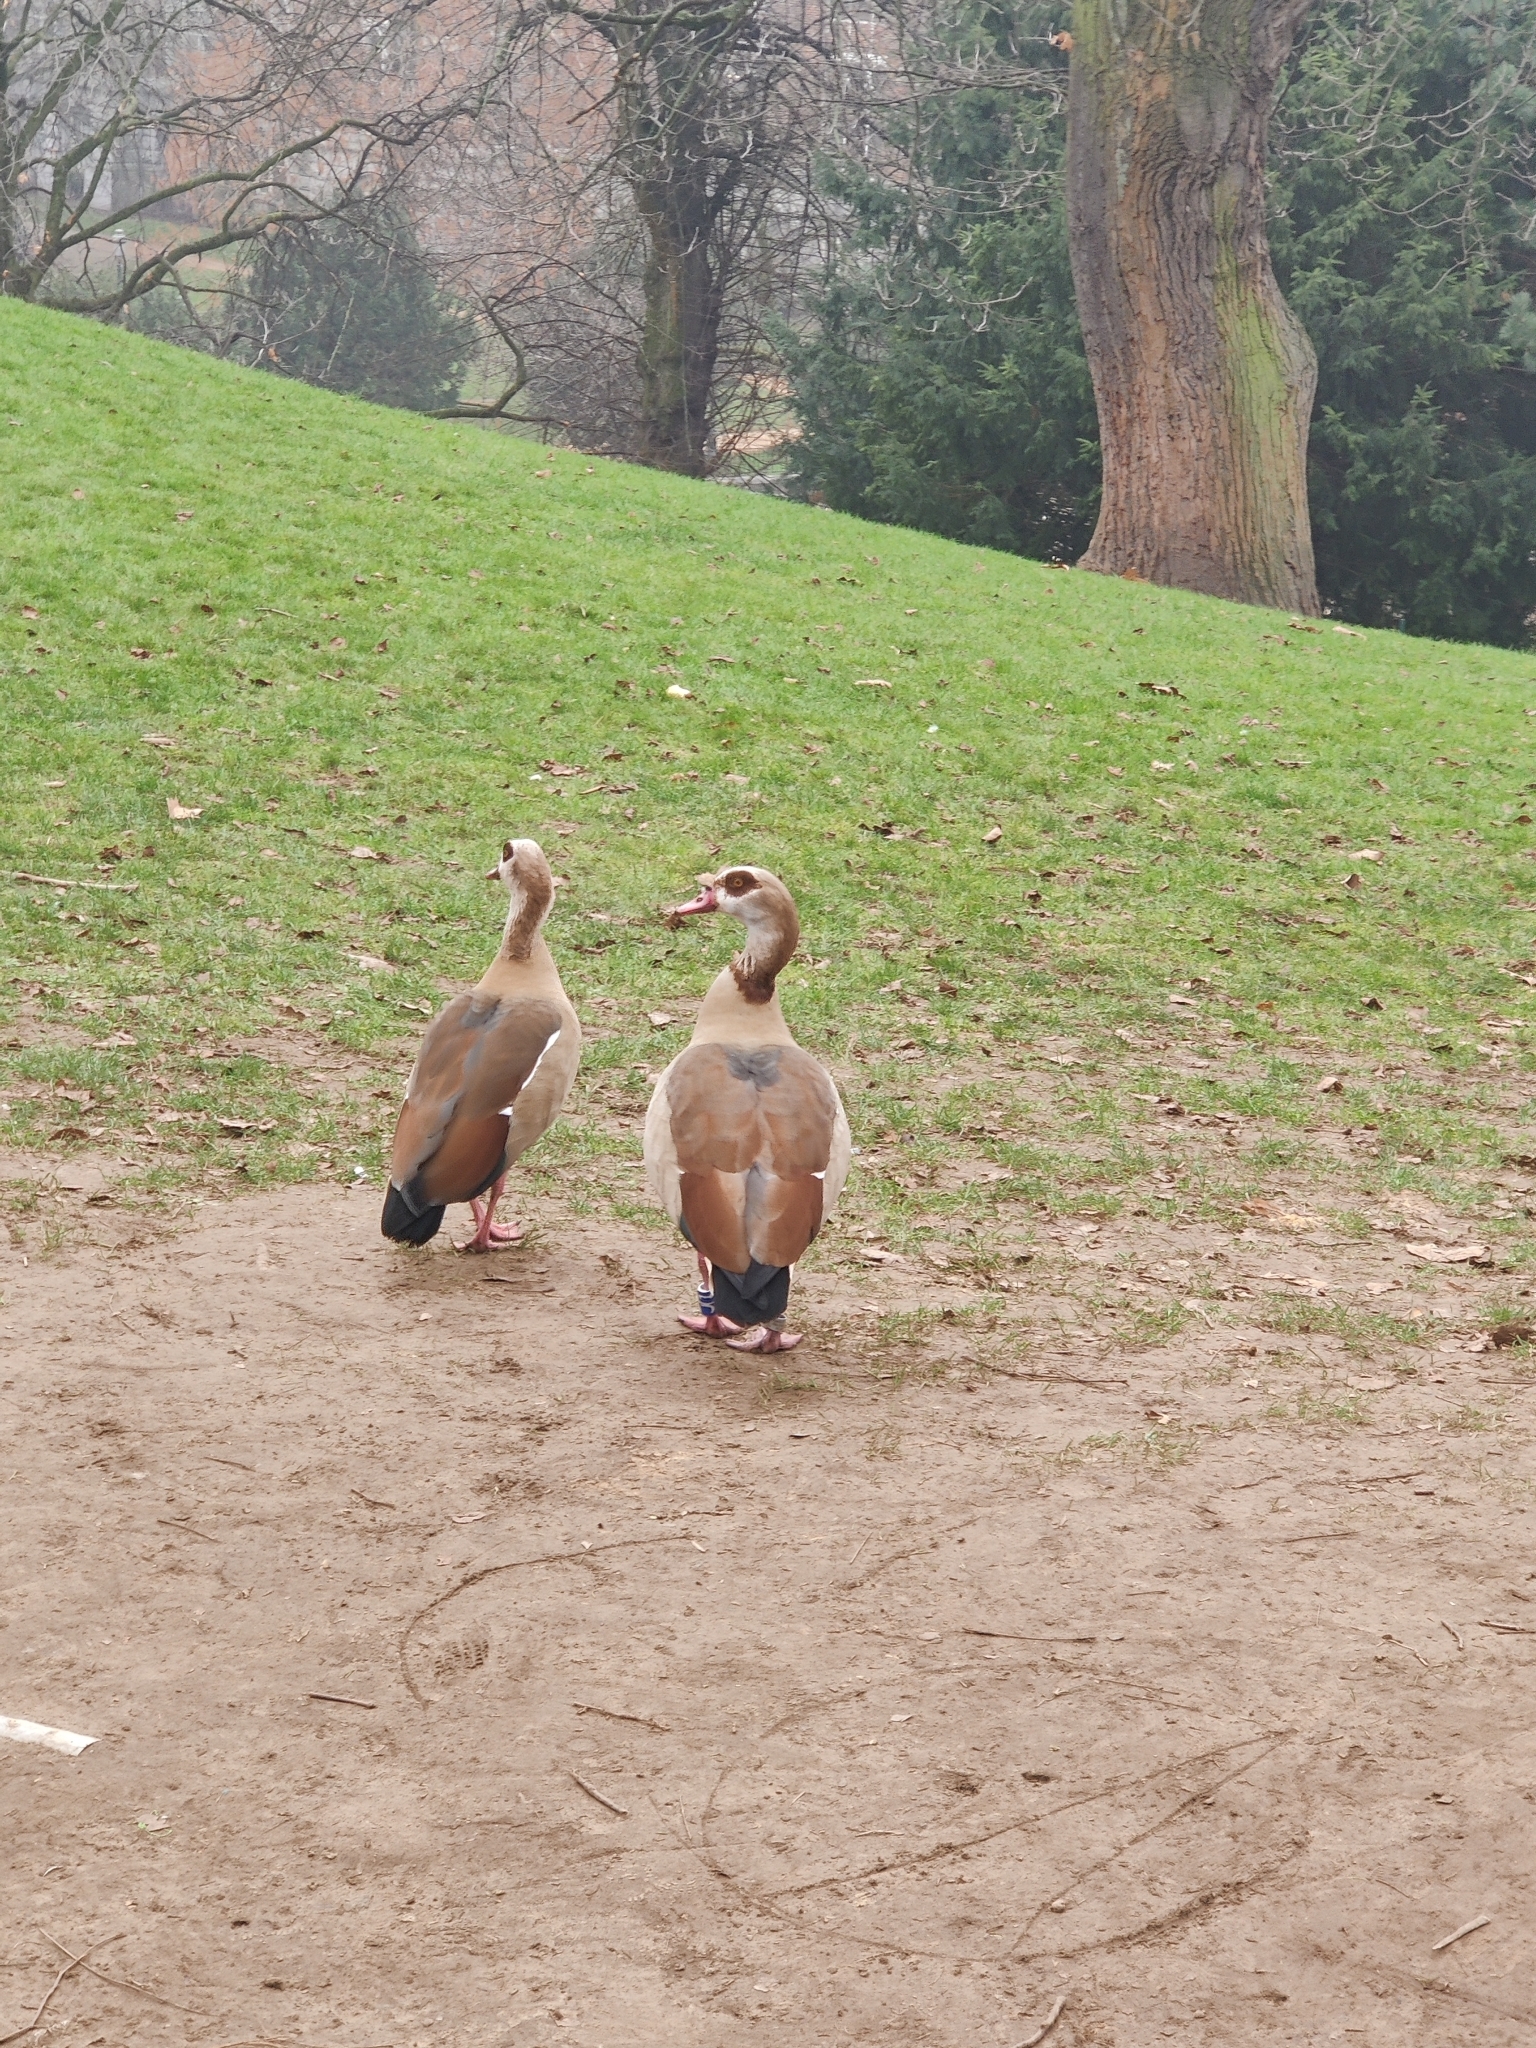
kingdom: Animalia
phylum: Chordata
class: Aves
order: Anseriformes
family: Anatidae
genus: Alopochen
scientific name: Alopochen aegyptiaca
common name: Egyptian goose
